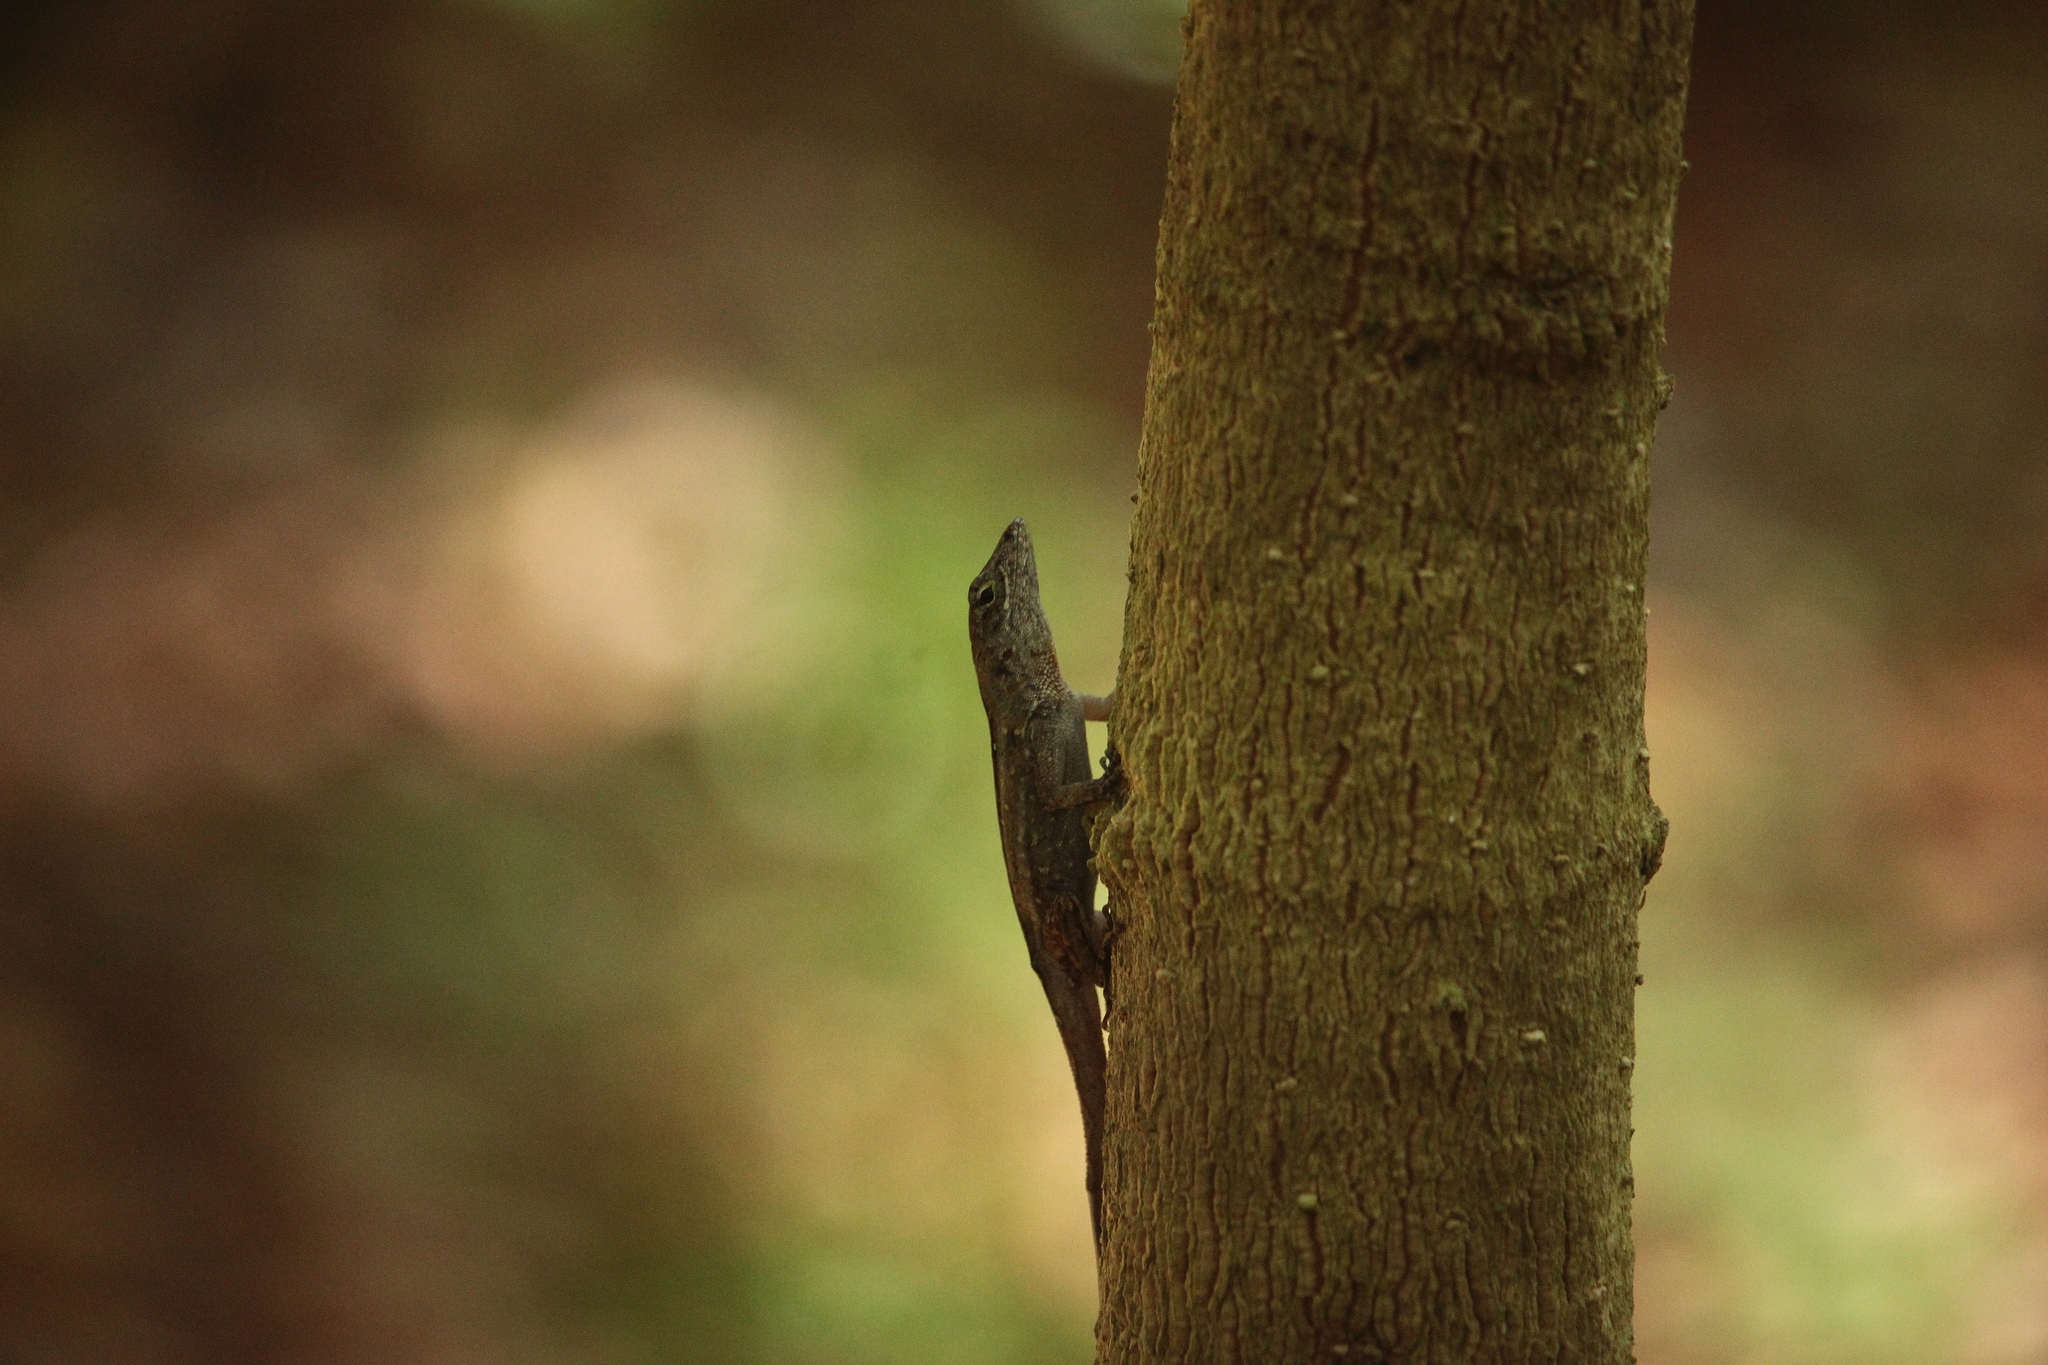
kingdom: Animalia
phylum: Chordata
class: Squamata
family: Dactyloidae
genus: Anolis
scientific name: Anolis sagrei
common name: Brown anole
